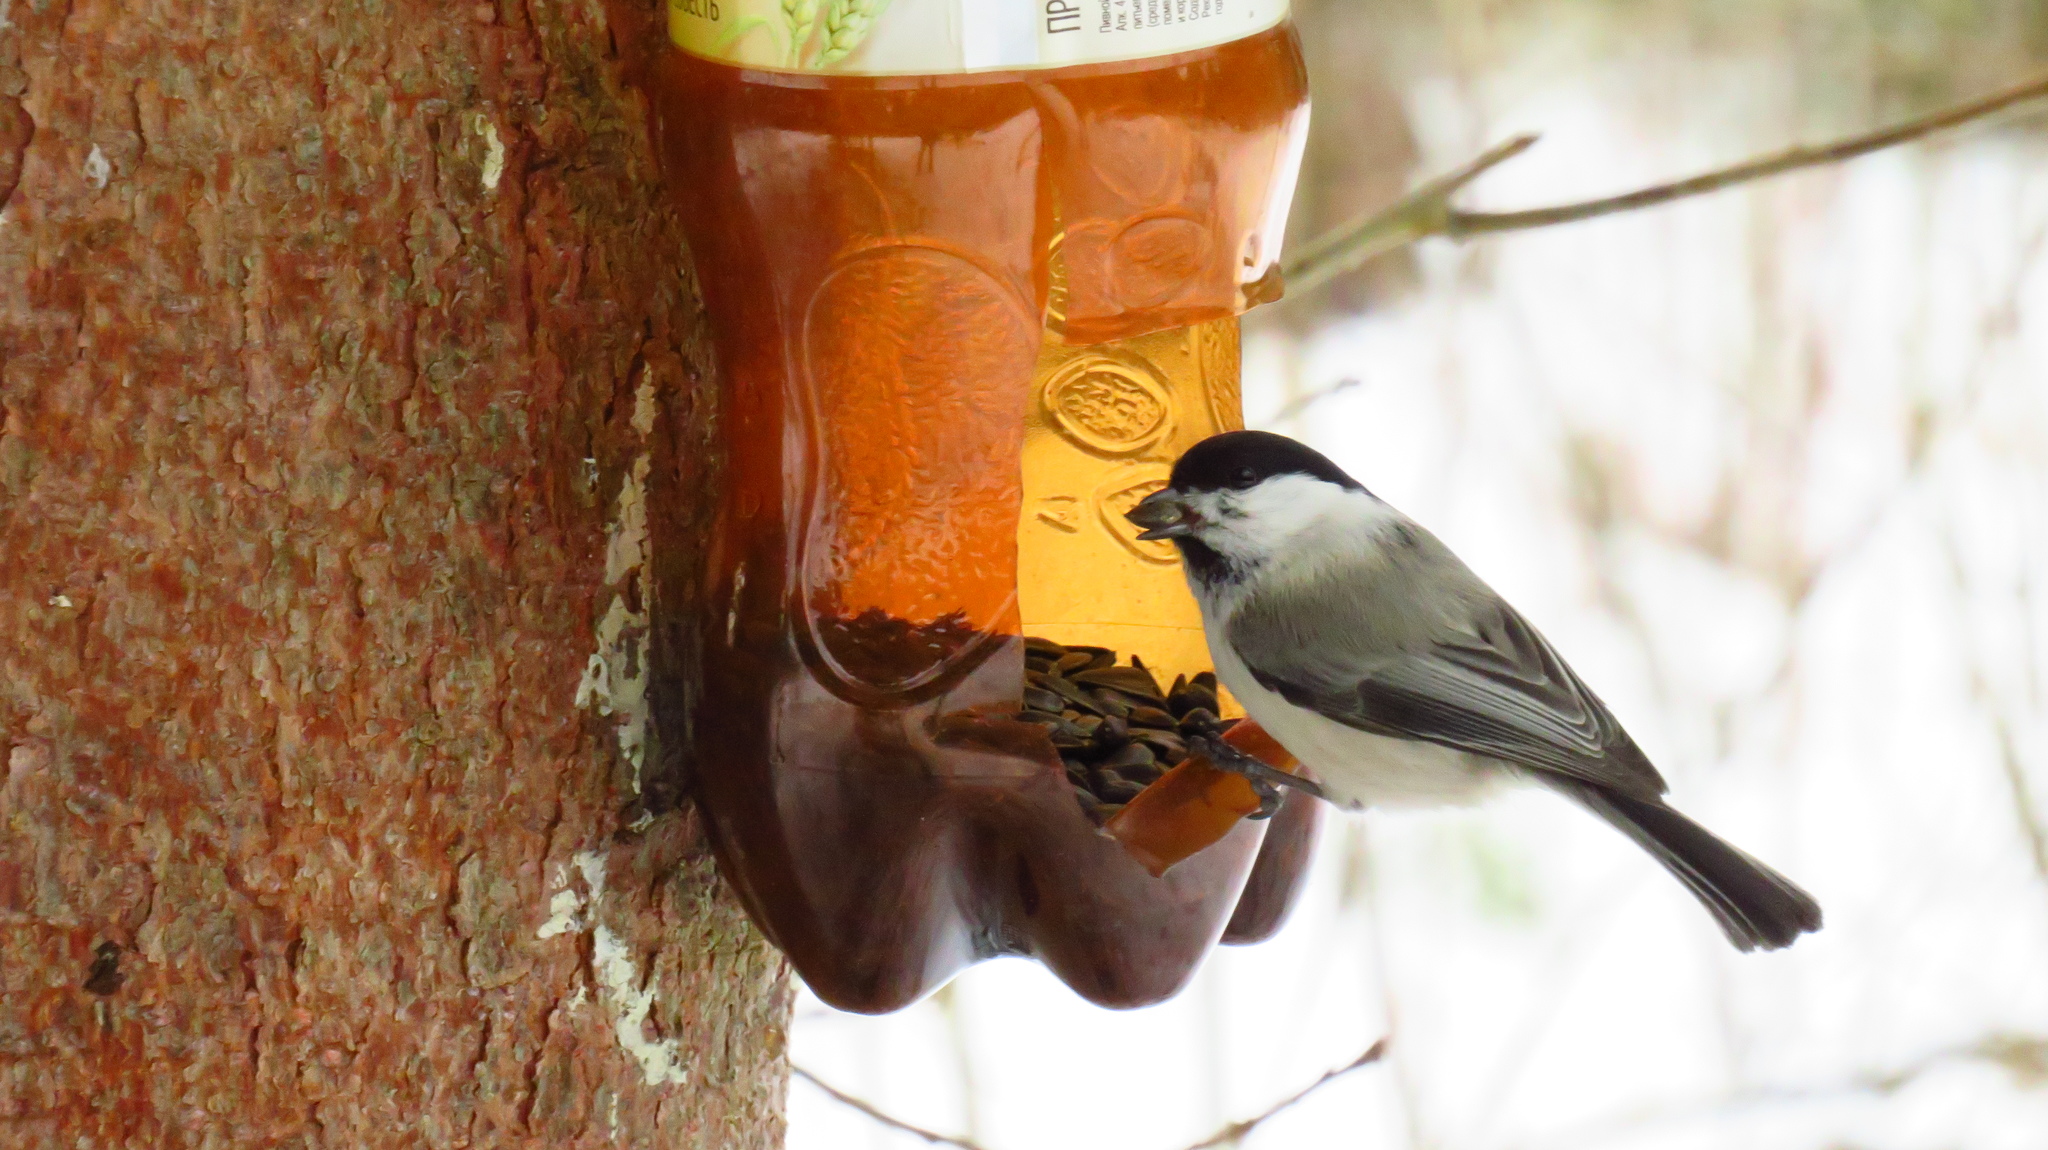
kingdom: Animalia
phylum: Chordata
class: Aves
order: Passeriformes
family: Paridae
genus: Poecile
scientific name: Poecile montanus
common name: Willow tit
